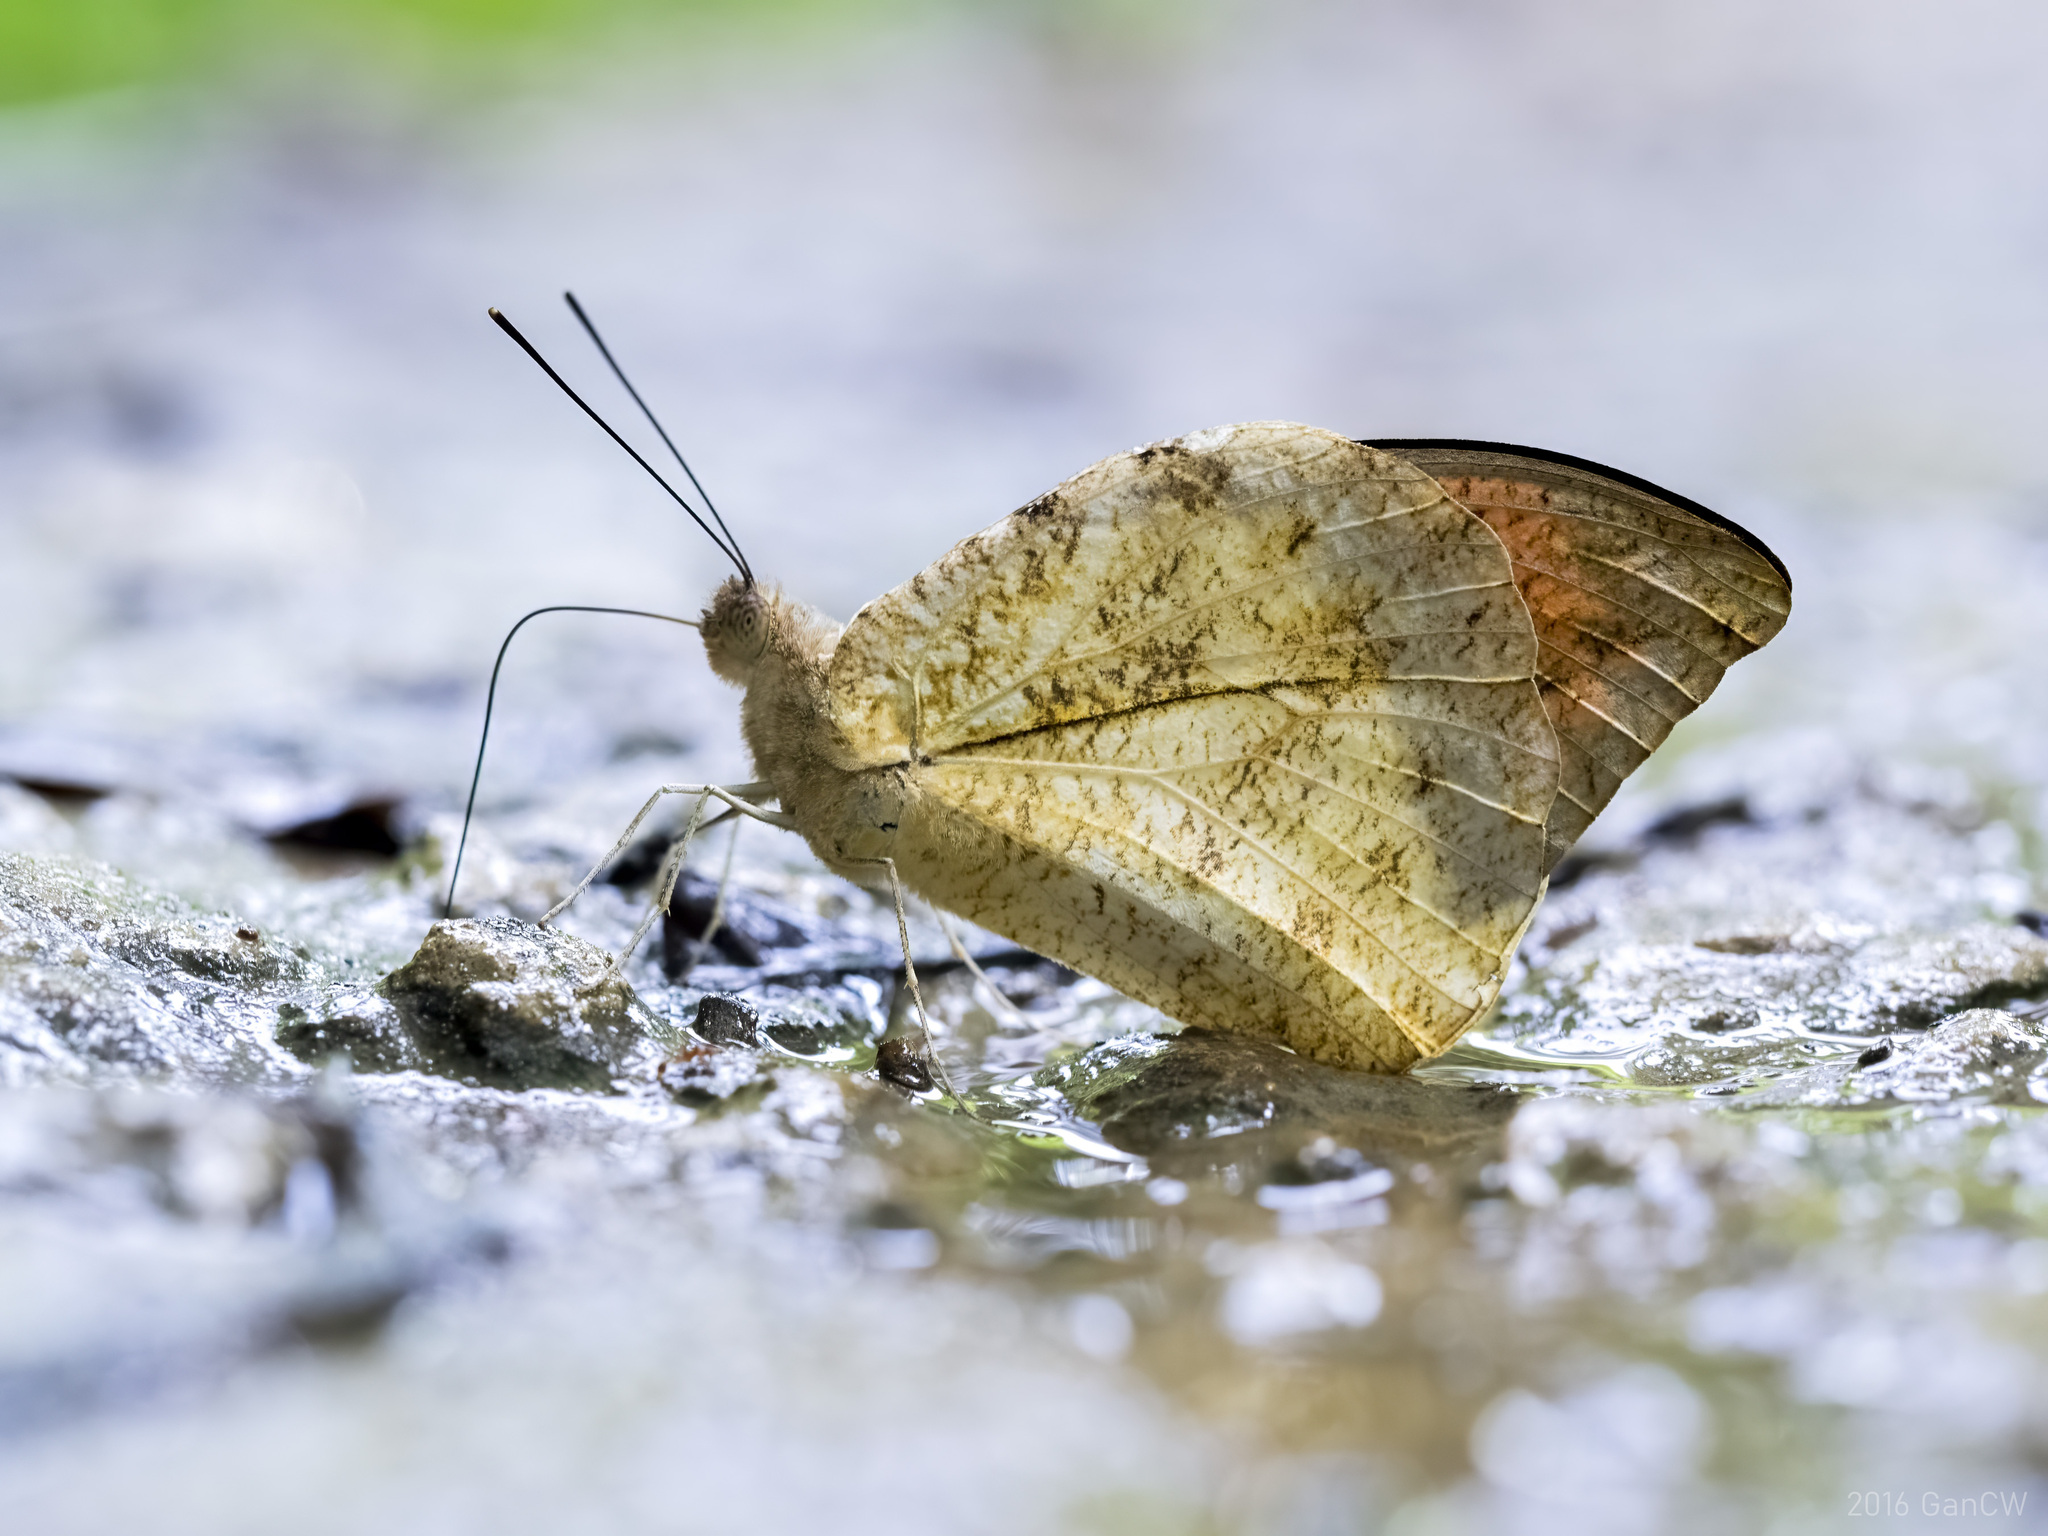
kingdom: Animalia
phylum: Arthropoda
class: Insecta
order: Lepidoptera
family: Pieridae
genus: Hebomoia
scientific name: Hebomoia glaucippe
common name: Great orange tip
